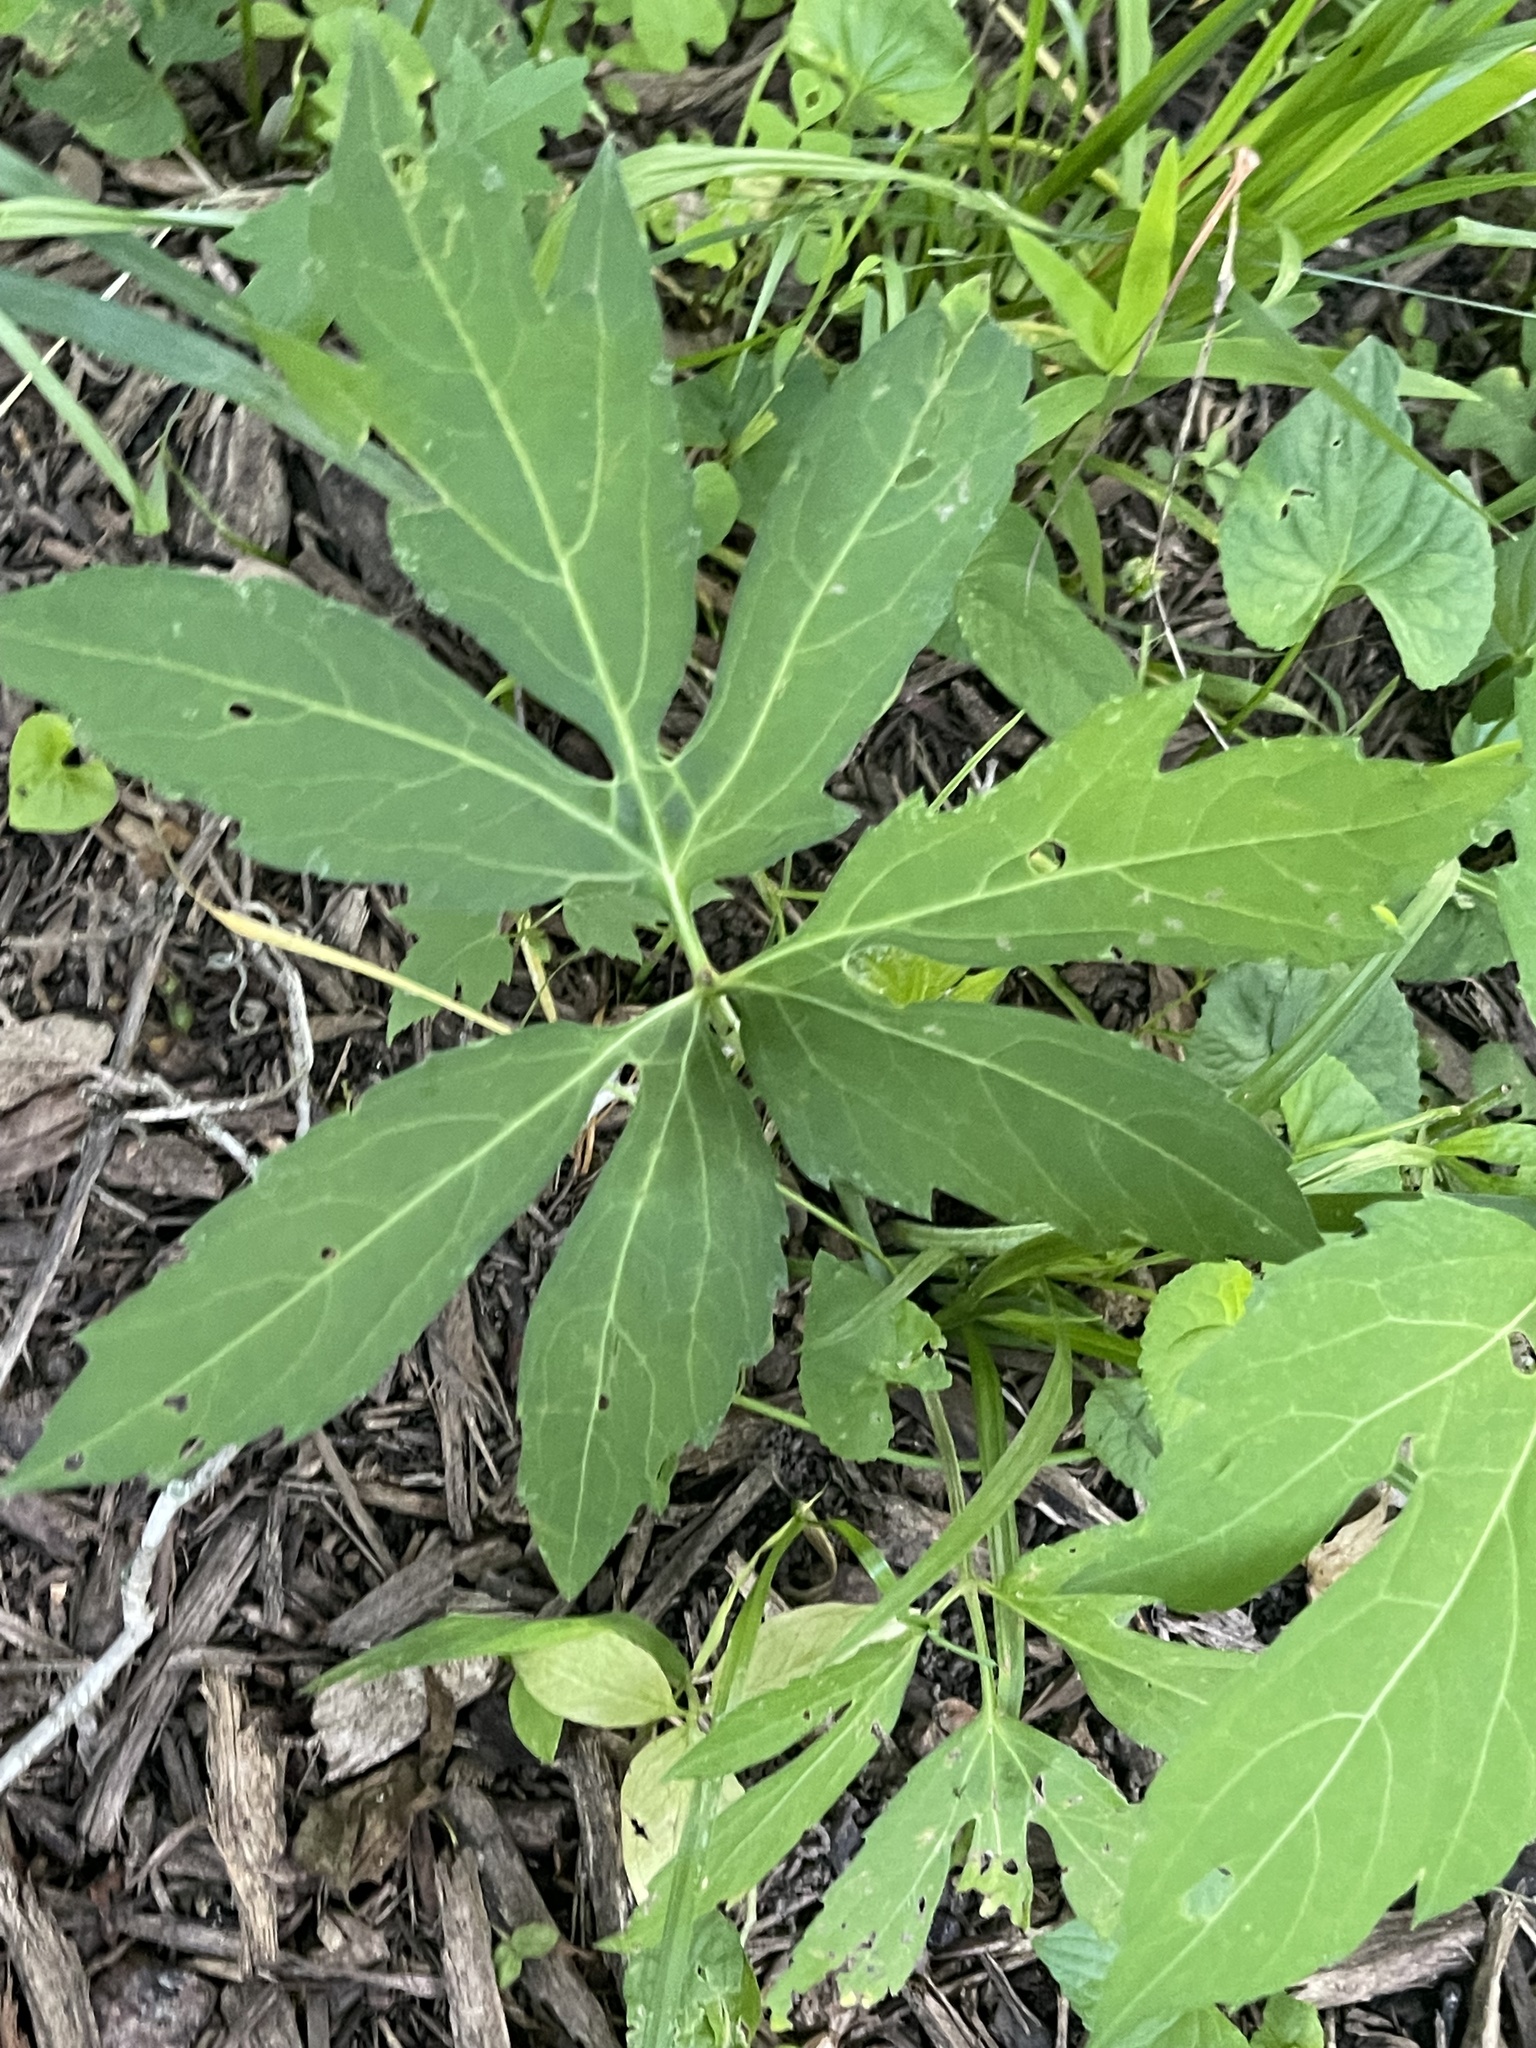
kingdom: Plantae
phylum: Tracheophyta
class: Magnoliopsida
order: Asterales
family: Asteraceae
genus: Rudbeckia
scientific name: Rudbeckia laciniata
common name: Coneflower
